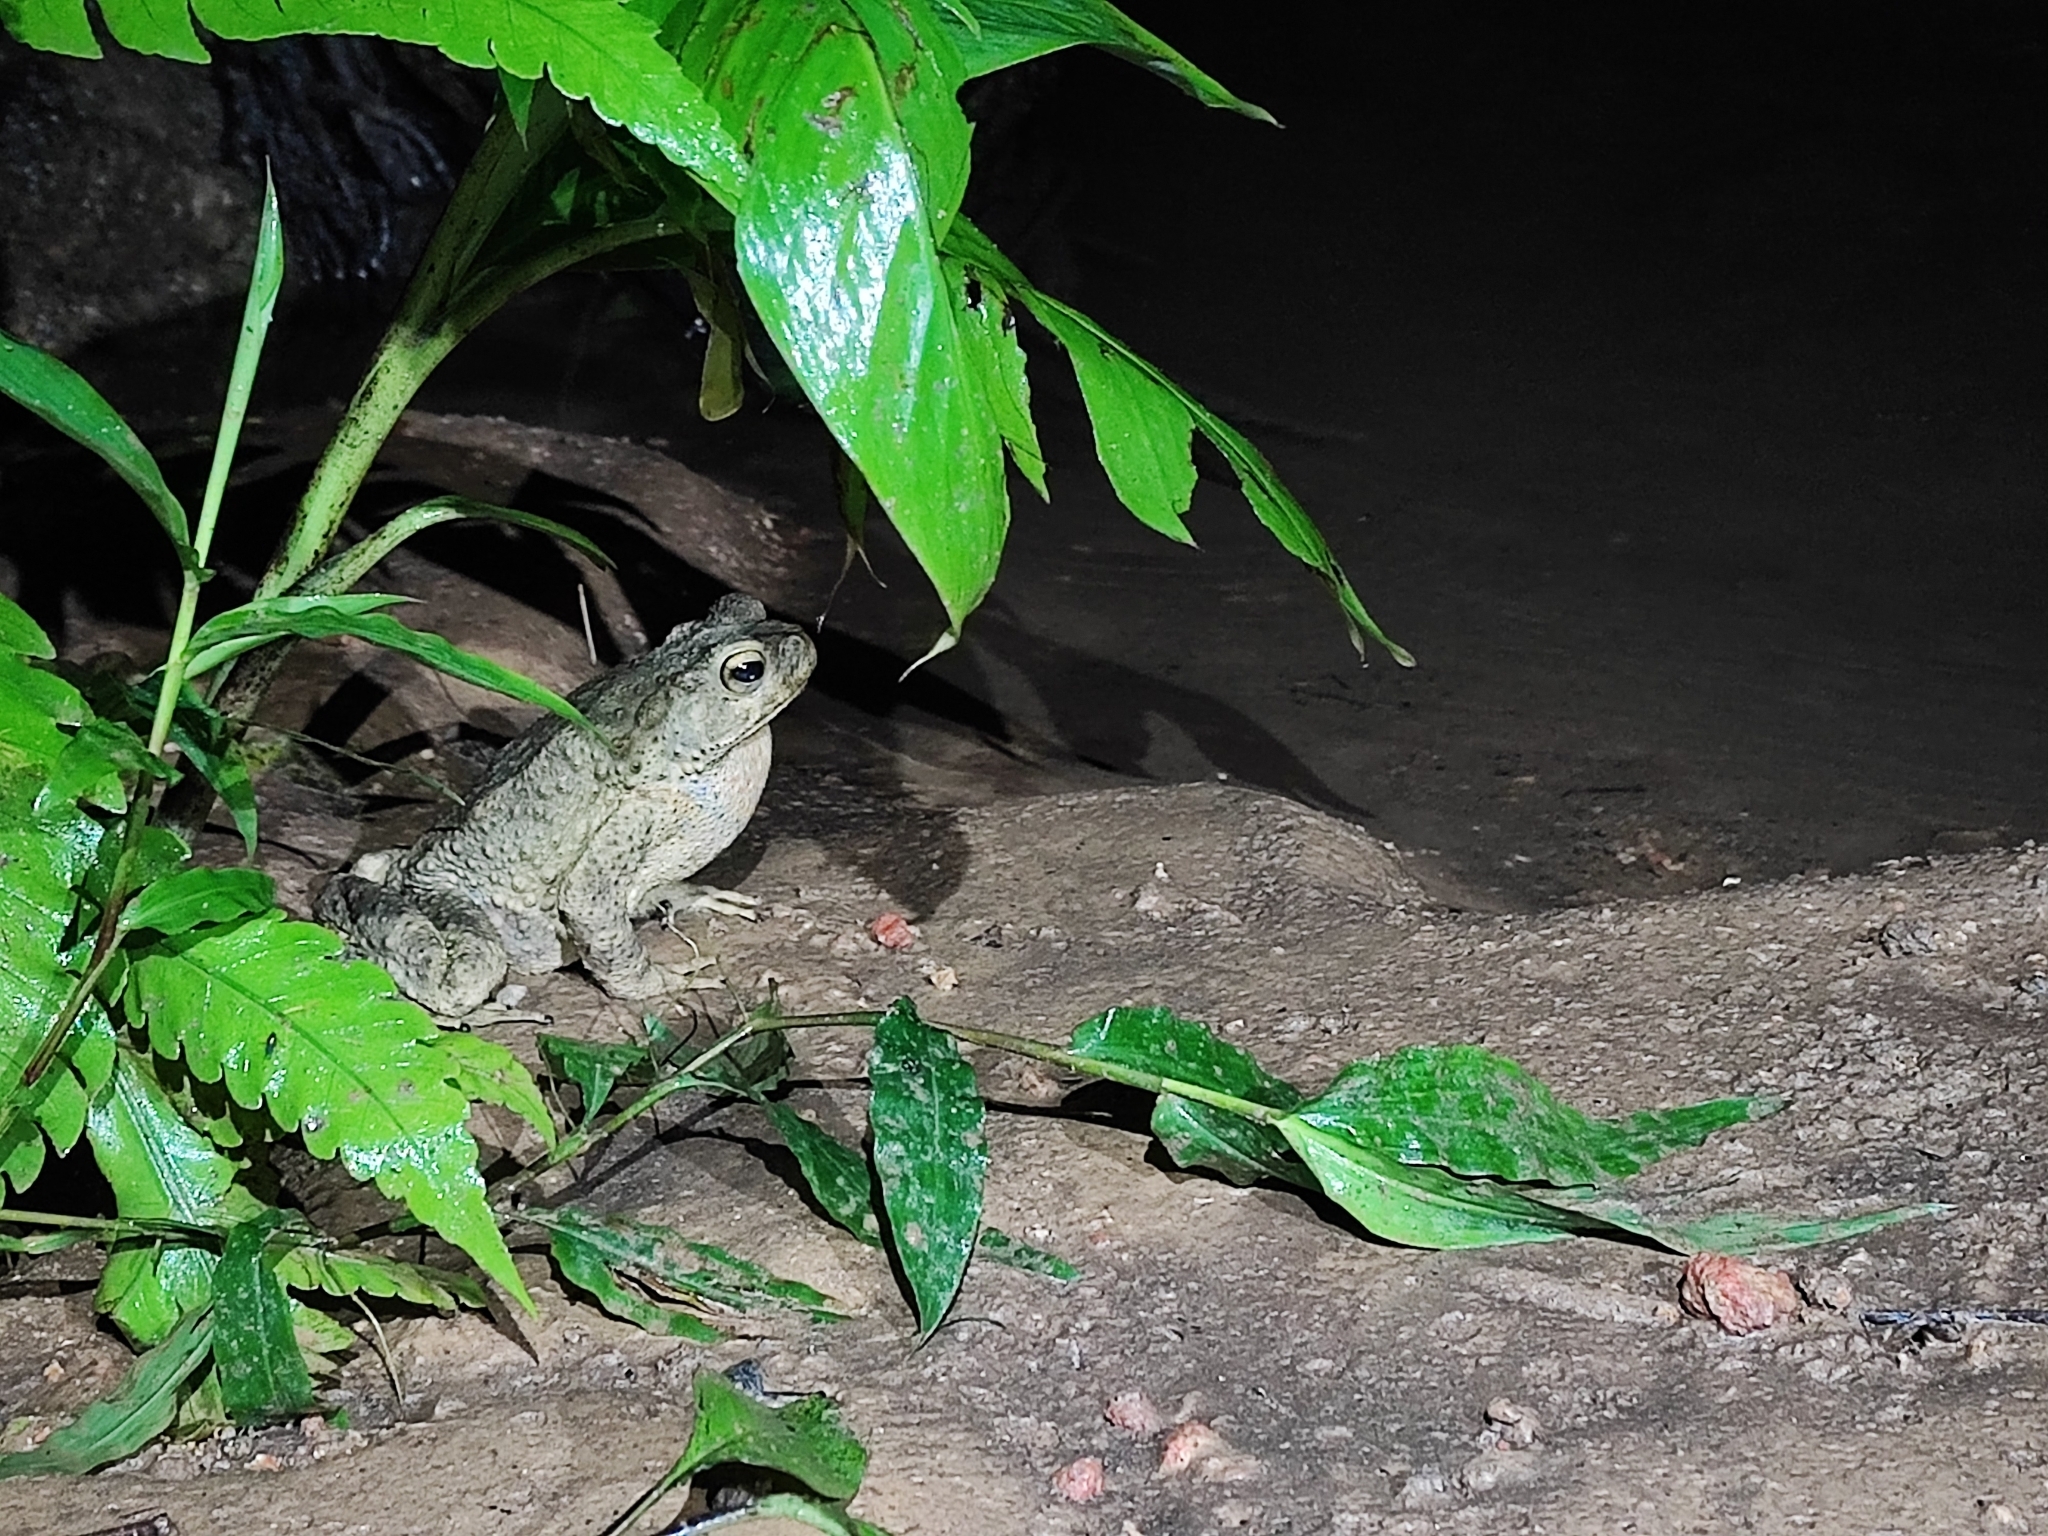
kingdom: Animalia
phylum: Chordata
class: Amphibia
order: Anura
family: Bufonidae
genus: Phrynoidis
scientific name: Phrynoidis asper
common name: Asian giant toad
